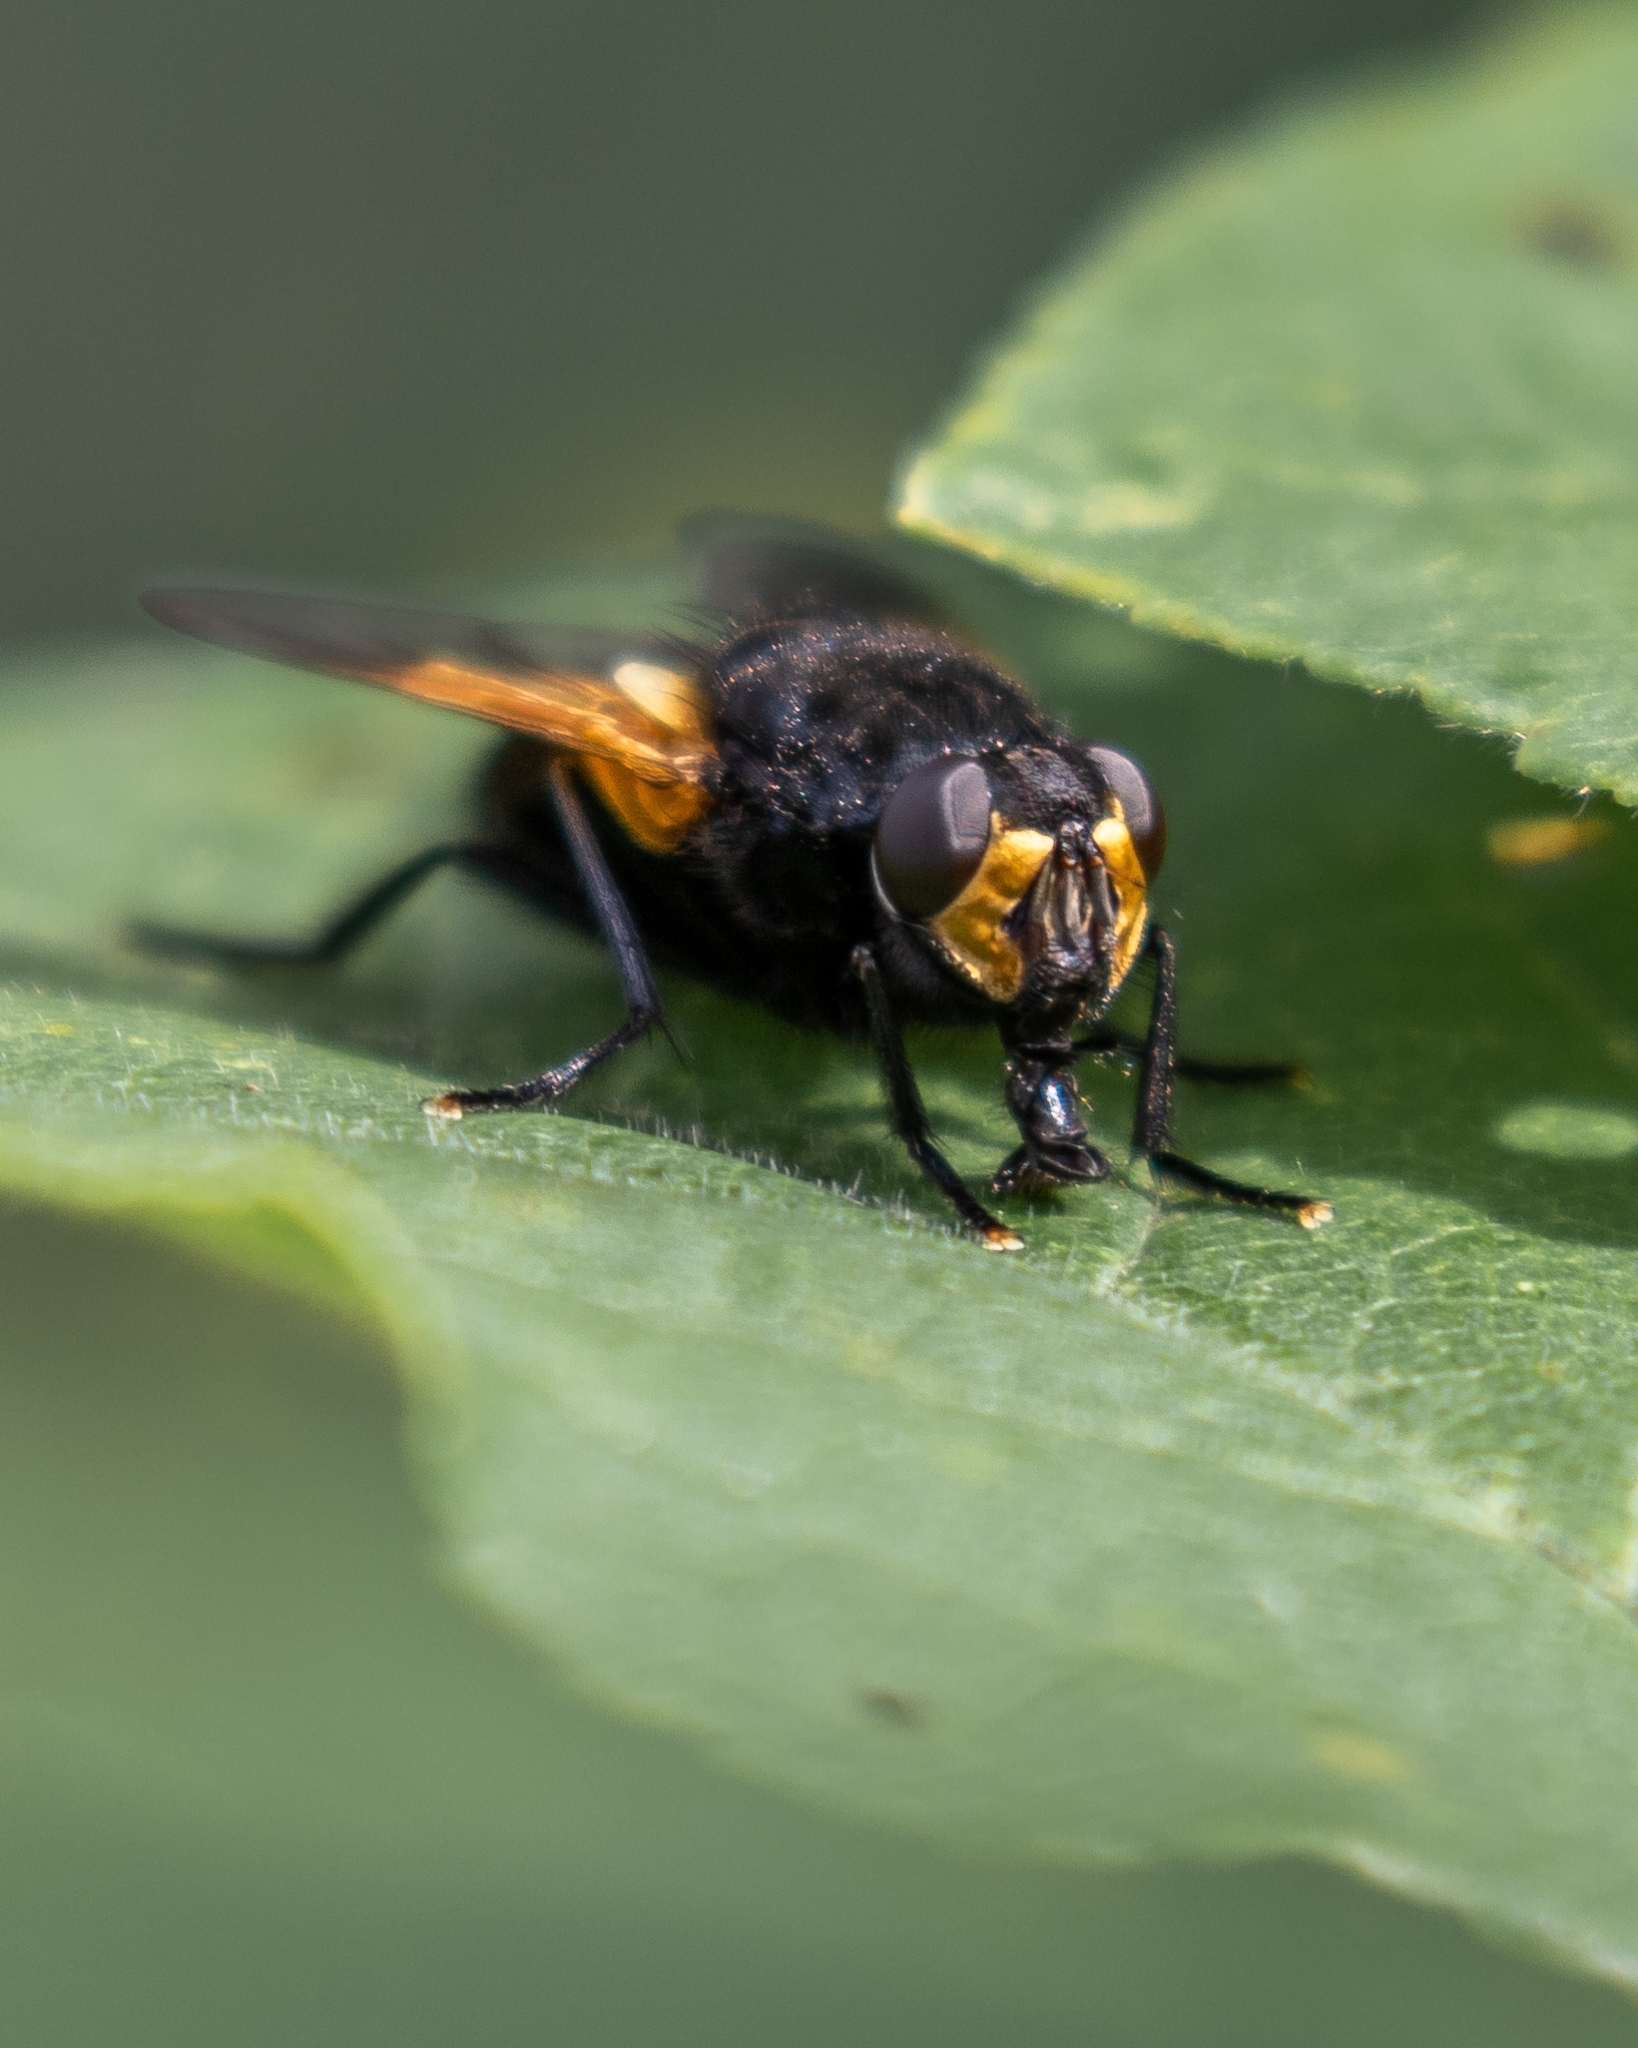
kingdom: Animalia
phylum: Arthropoda
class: Insecta
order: Diptera
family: Muscidae
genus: Mesembrina
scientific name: Mesembrina meridiana
